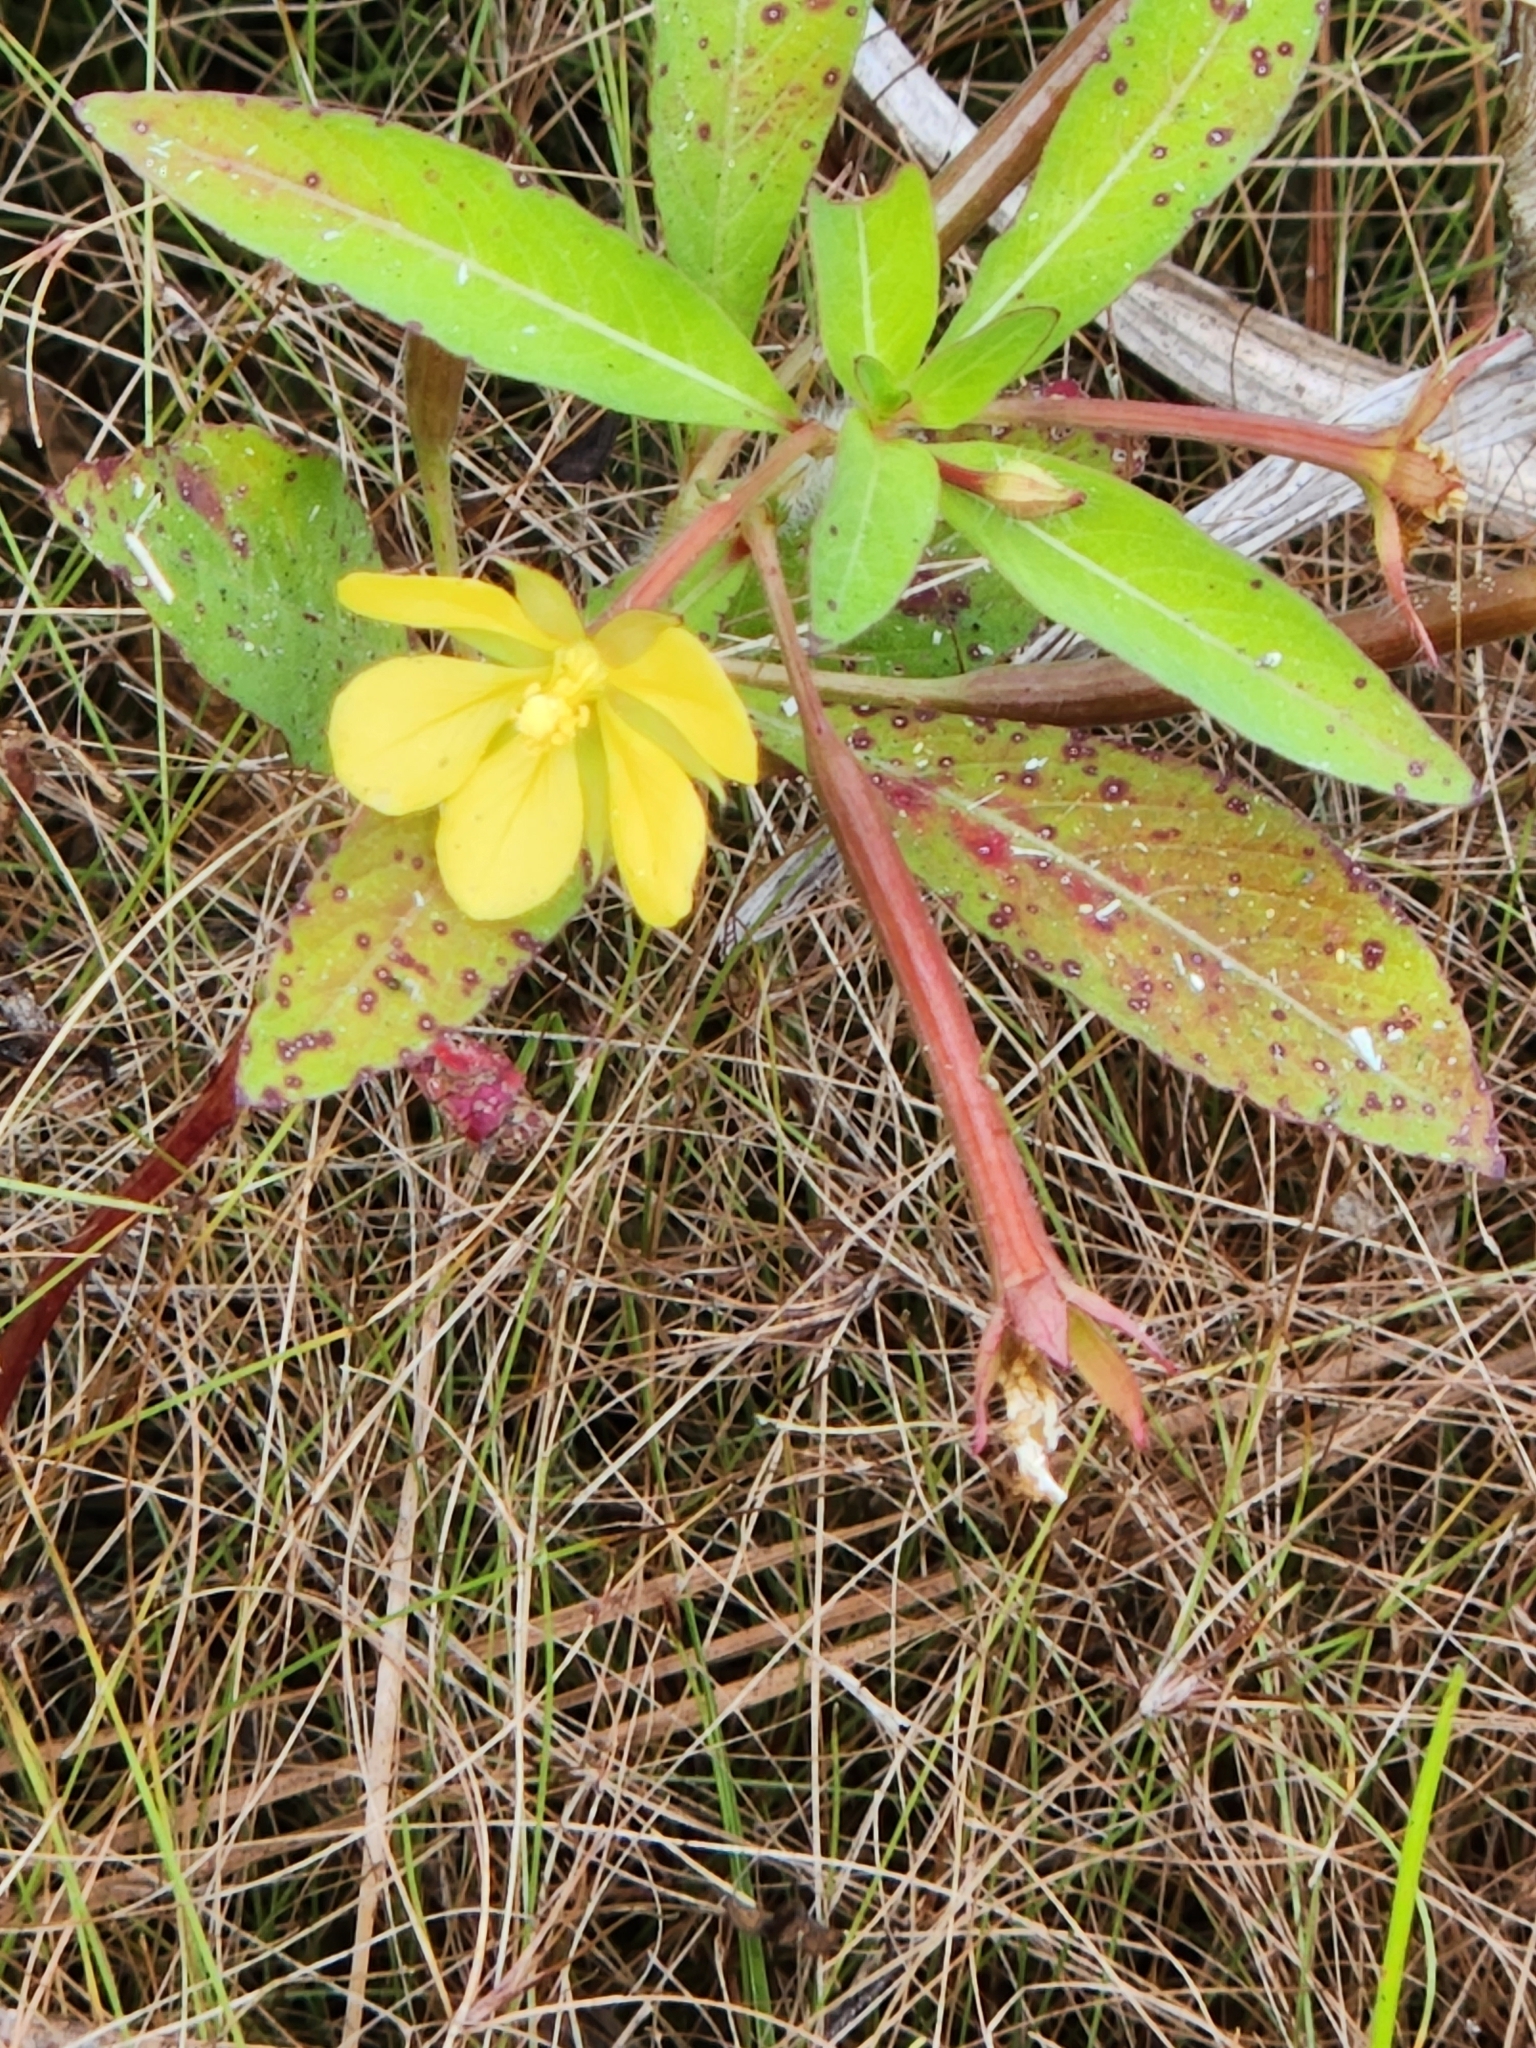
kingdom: Plantae
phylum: Tracheophyta
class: Magnoliopsida
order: Myrtales
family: Onagraceae
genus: Ludwigia
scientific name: Ludwigia leptocarpa
